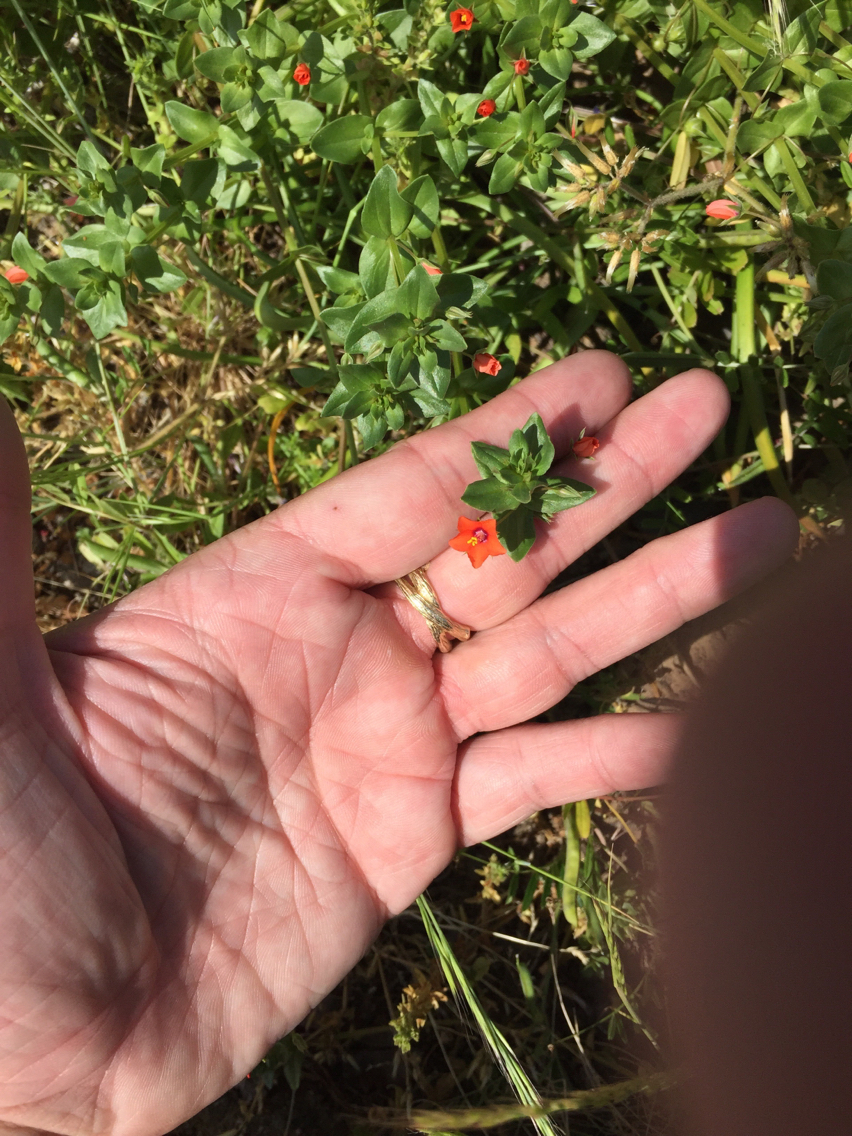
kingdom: Plantae
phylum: Tracheophyta
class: Magnoliopsida
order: Ericales
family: Primulaceae
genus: Lysimachia
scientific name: Lysimachia arvensis
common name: Scarlet pimpernel
